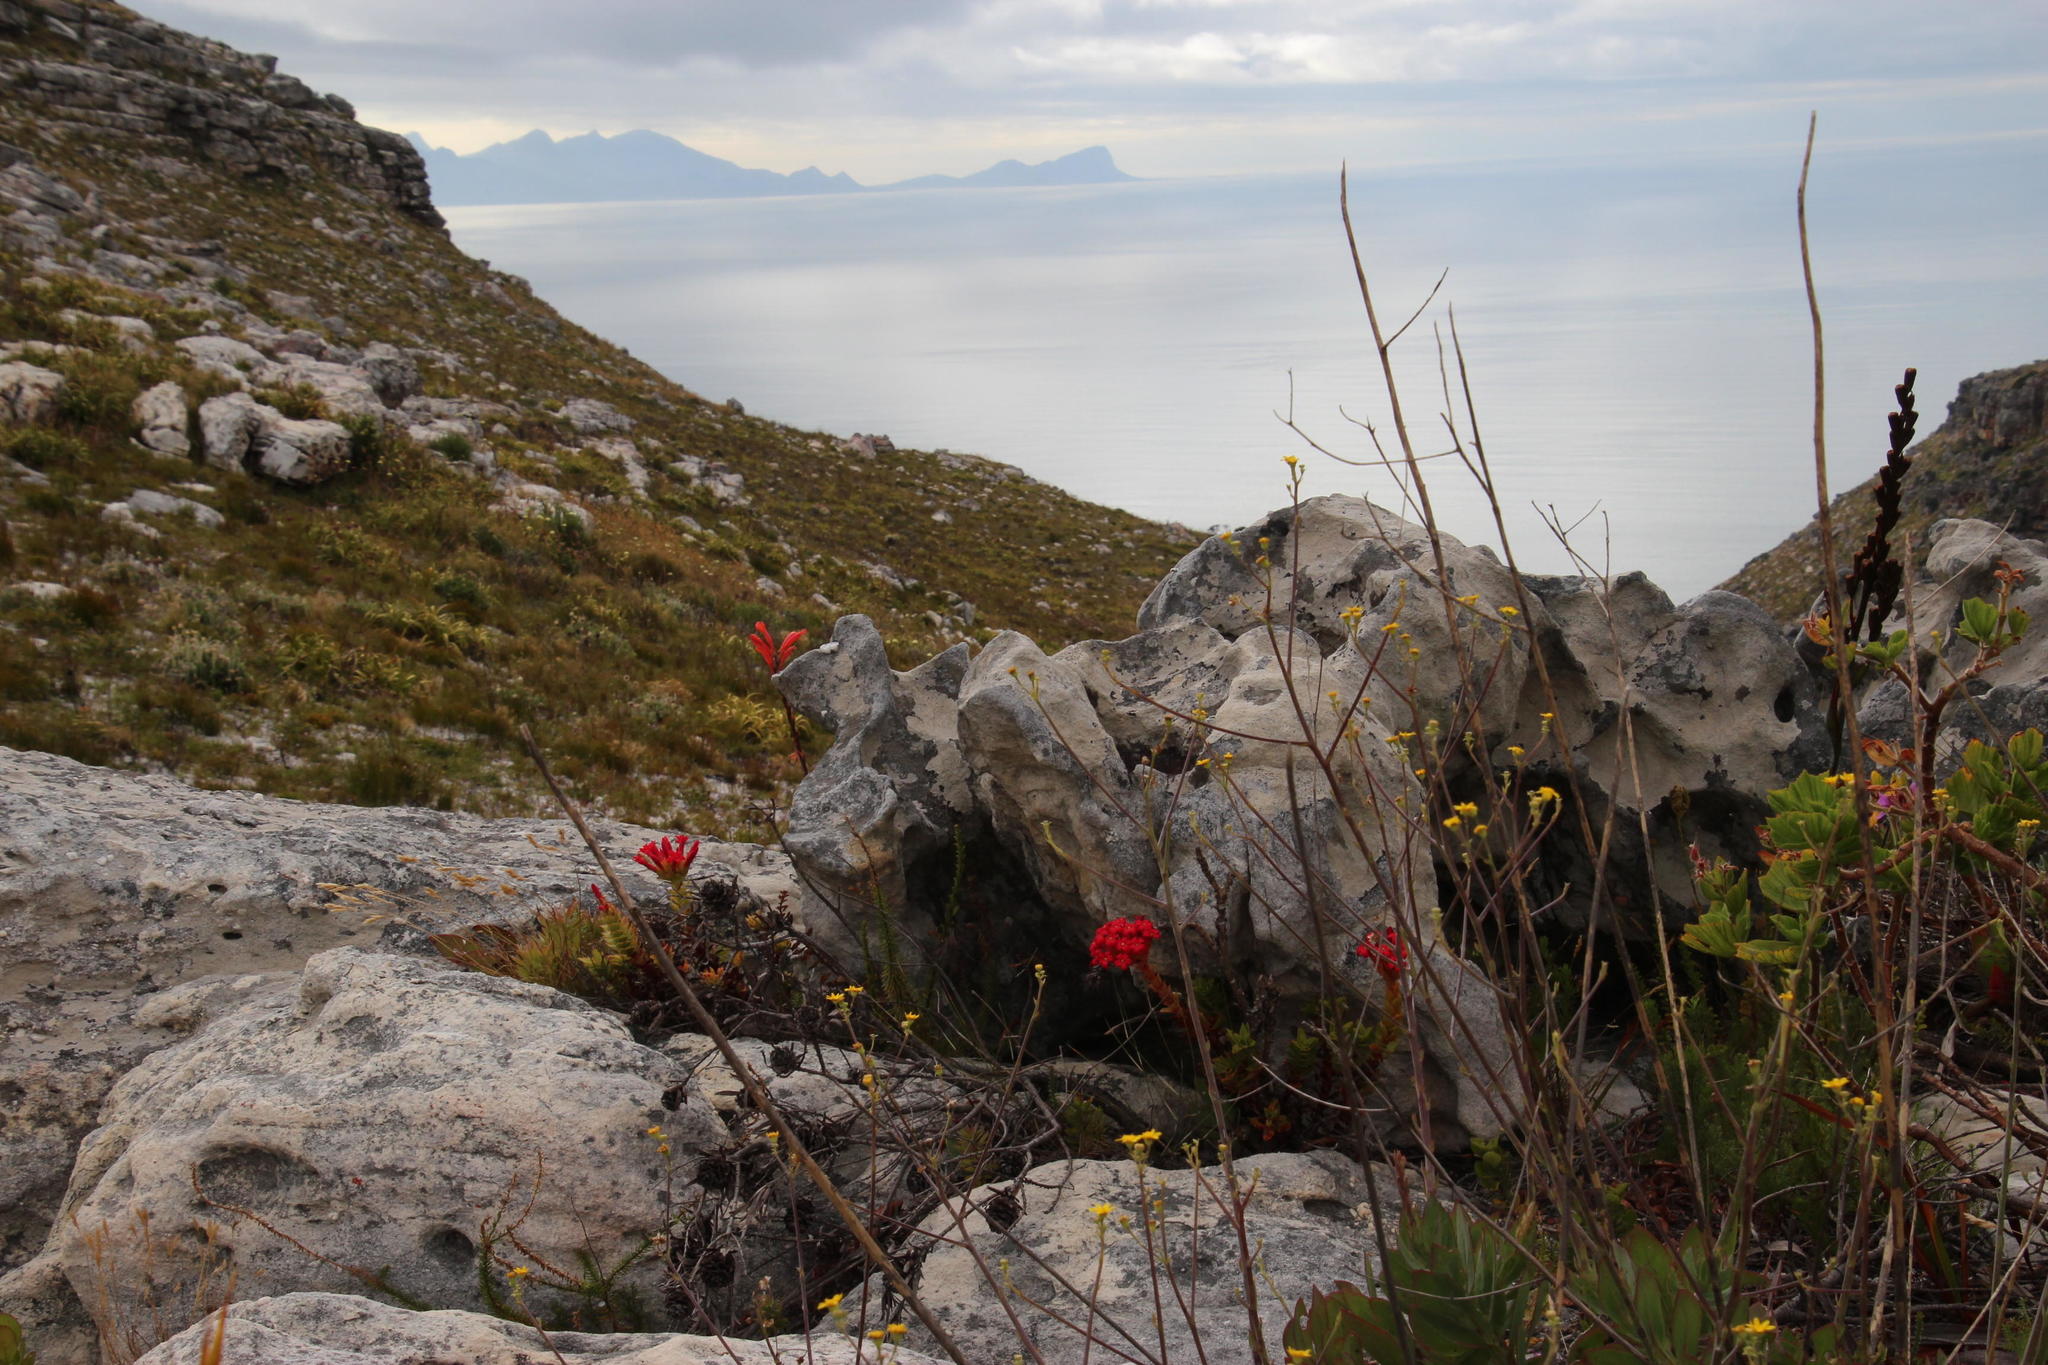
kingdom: Plantae
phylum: Tracheophyta
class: Magnoliopsida
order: Saxifragales
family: Crassulaceae
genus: Crassula
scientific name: Crassula coccinea
